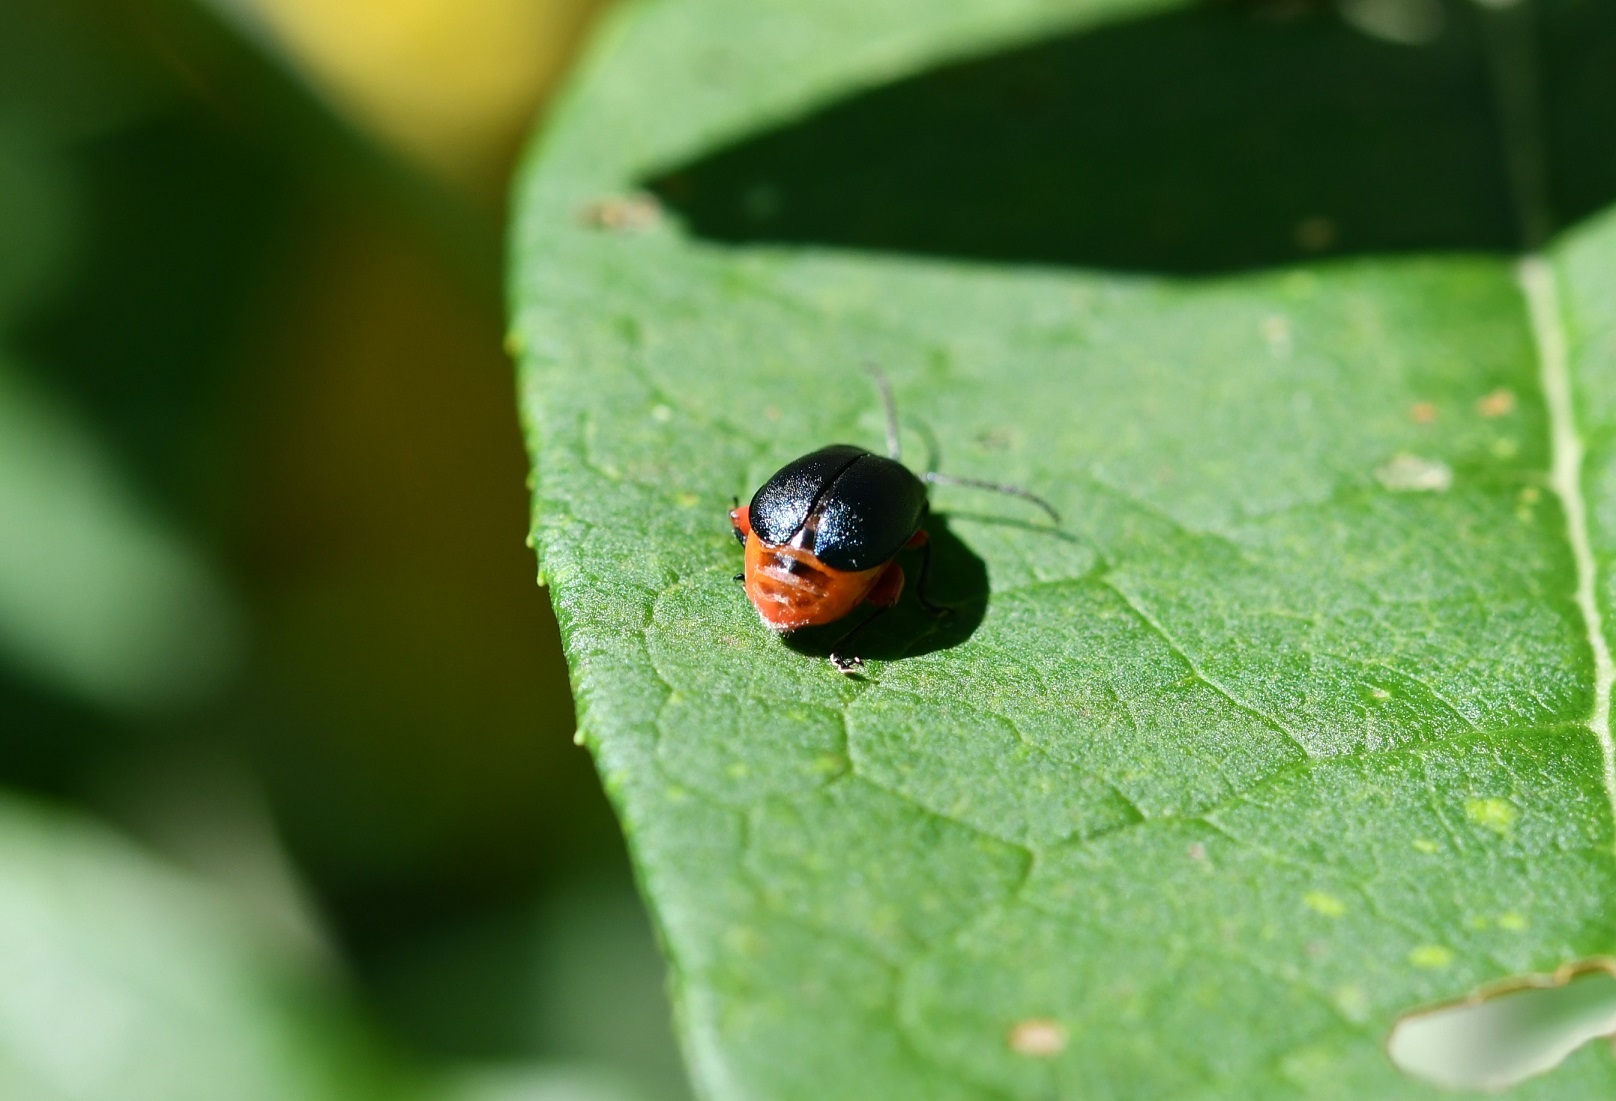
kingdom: Animalia
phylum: Arthropoda
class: Insecta
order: Coleoptera
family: Chrysomelidae
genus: Asphaera
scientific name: Asphaera abdominalis
